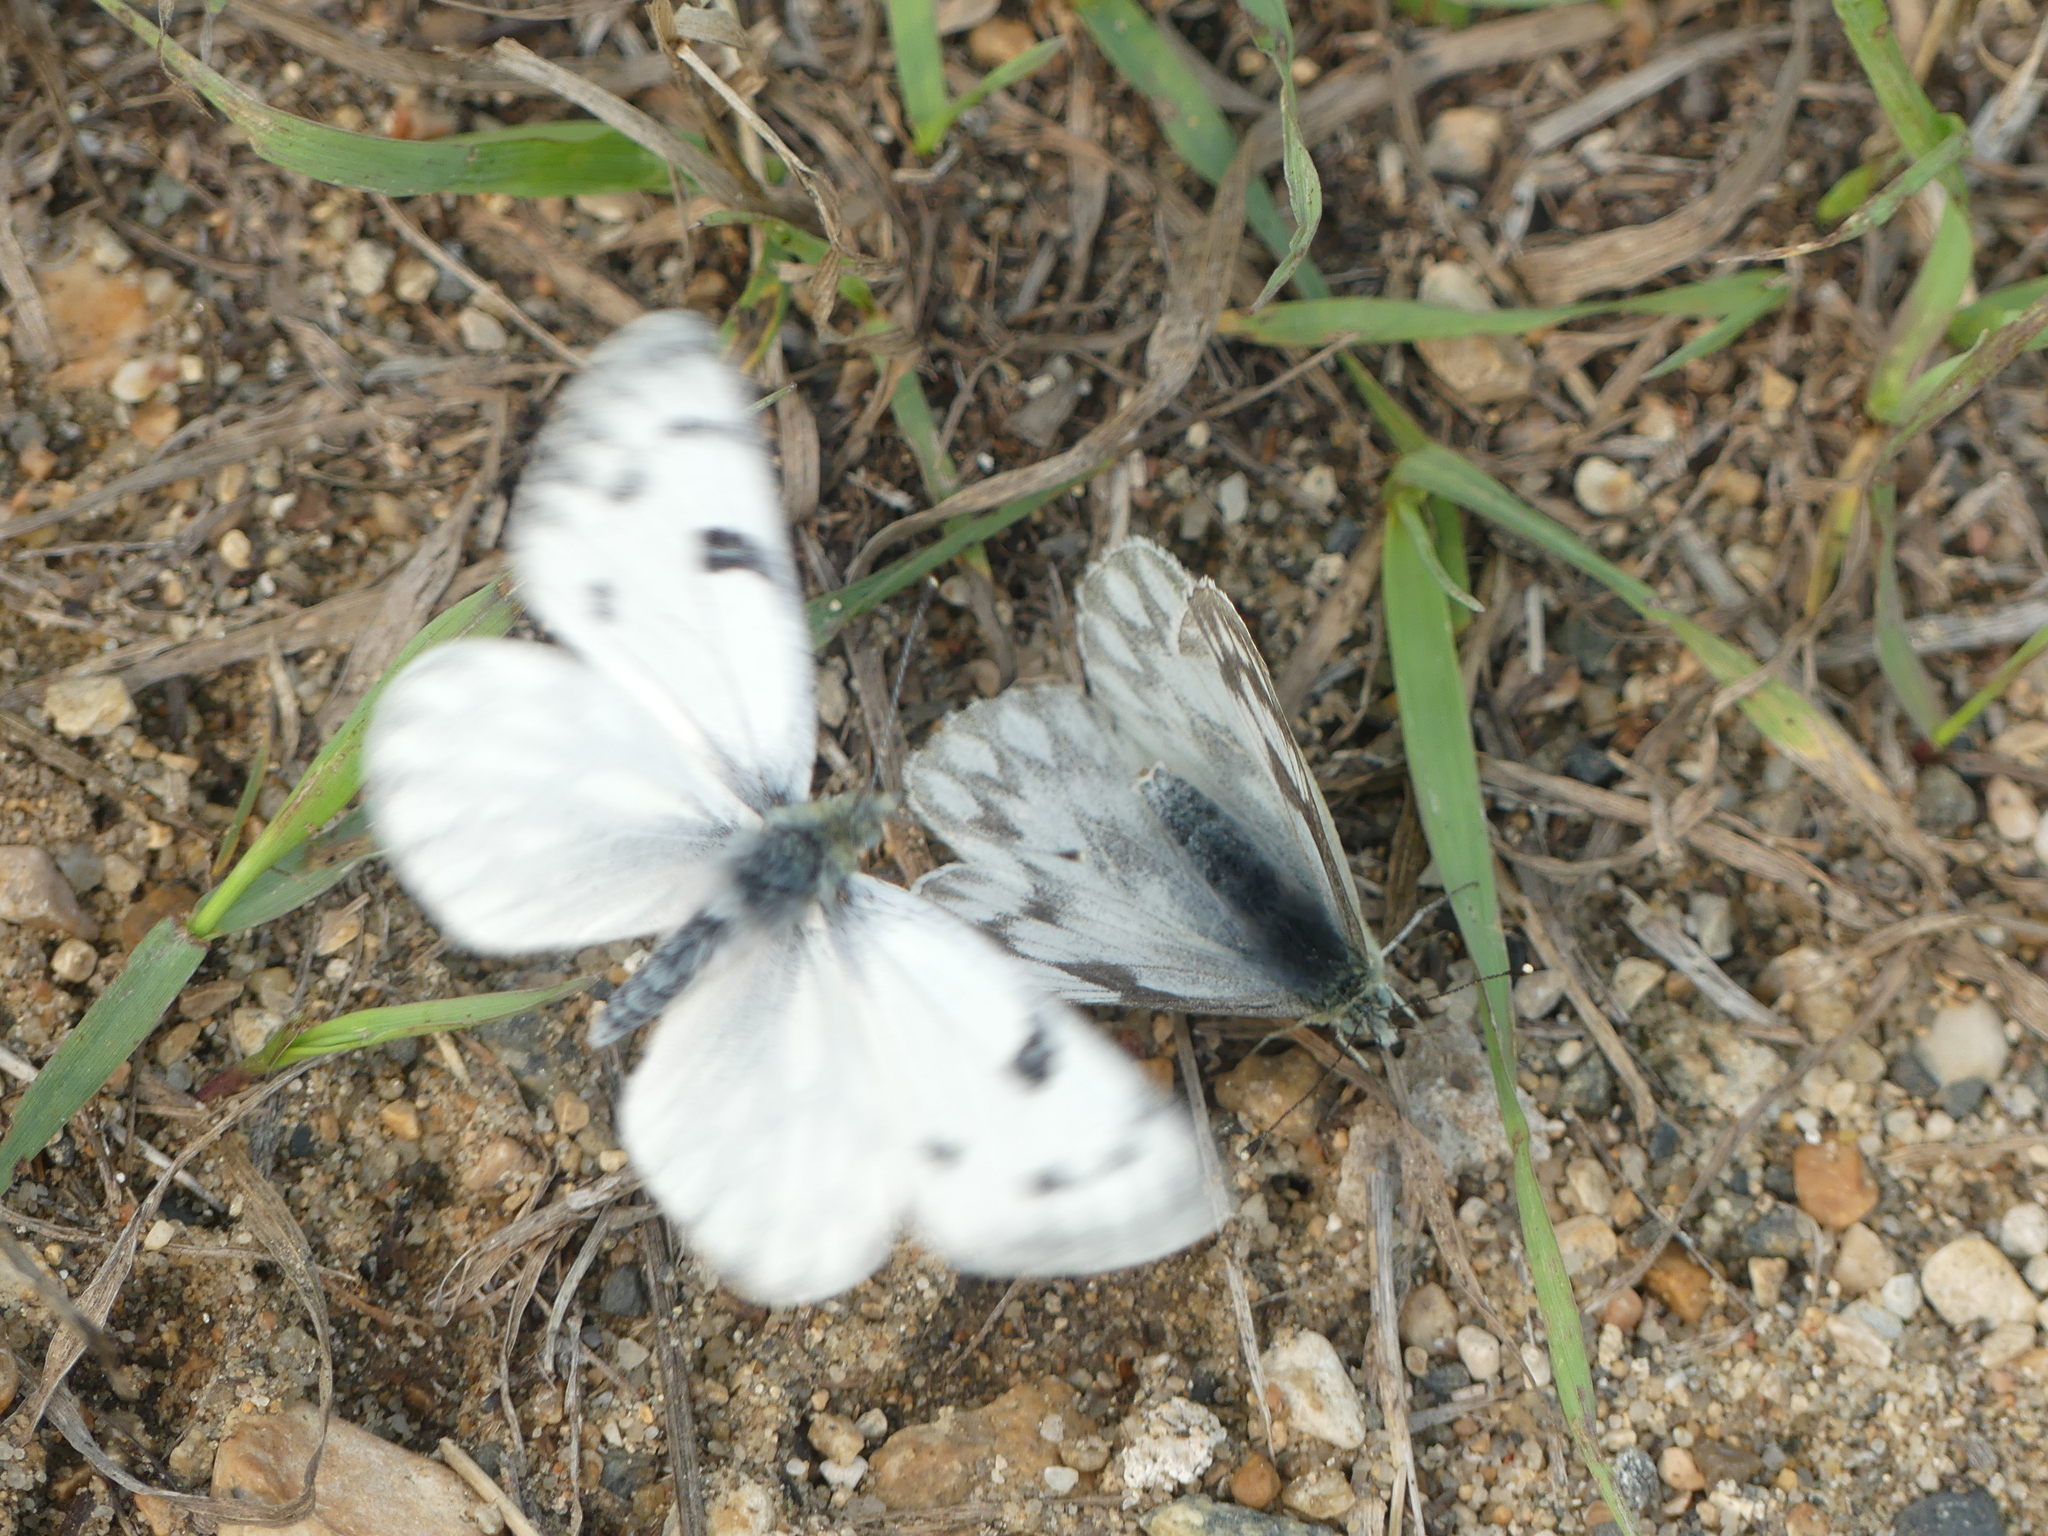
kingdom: Animalia
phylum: Arthropoda
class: Insecta
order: Lepidoptera
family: Pieridae
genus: Pontia
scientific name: Pontia occidentalis
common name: Western white
